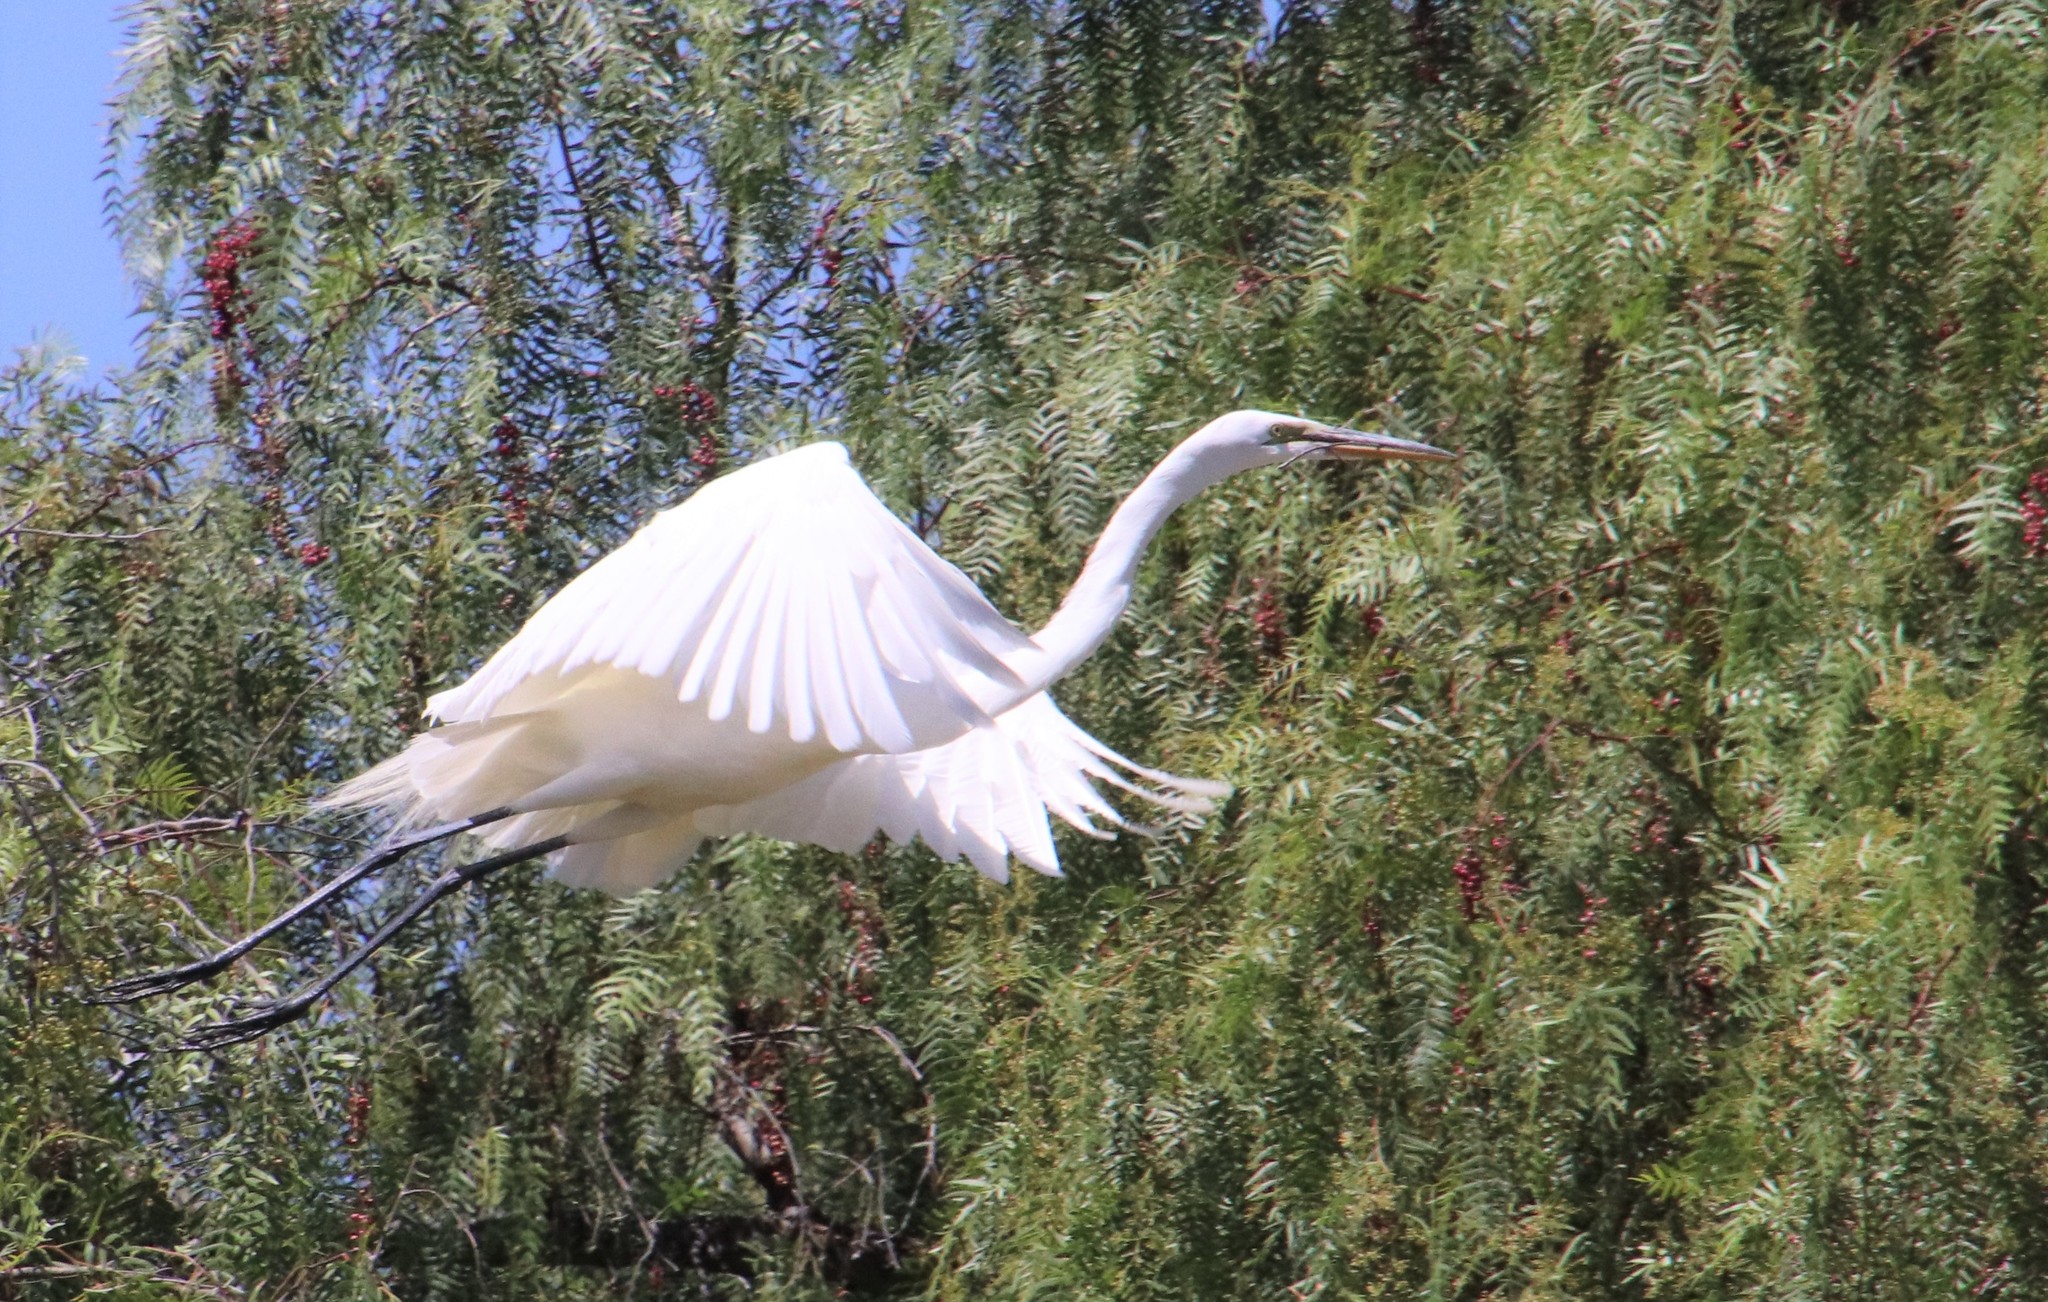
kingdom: Animalia
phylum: Chordata
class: Aves
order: Pelecaniformes
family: Ardeidae
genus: Ardea
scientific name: Ardea alba
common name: Great egret
